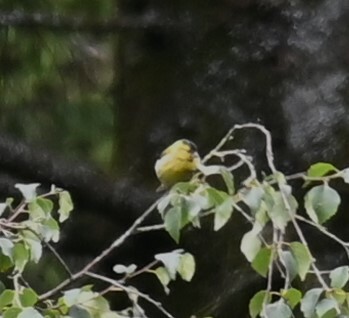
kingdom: Animalia
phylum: Chordata
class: Aves
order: Passeriformes
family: Fringillidae
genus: Spinus
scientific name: Spinus spinus
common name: Eurasian siskin
